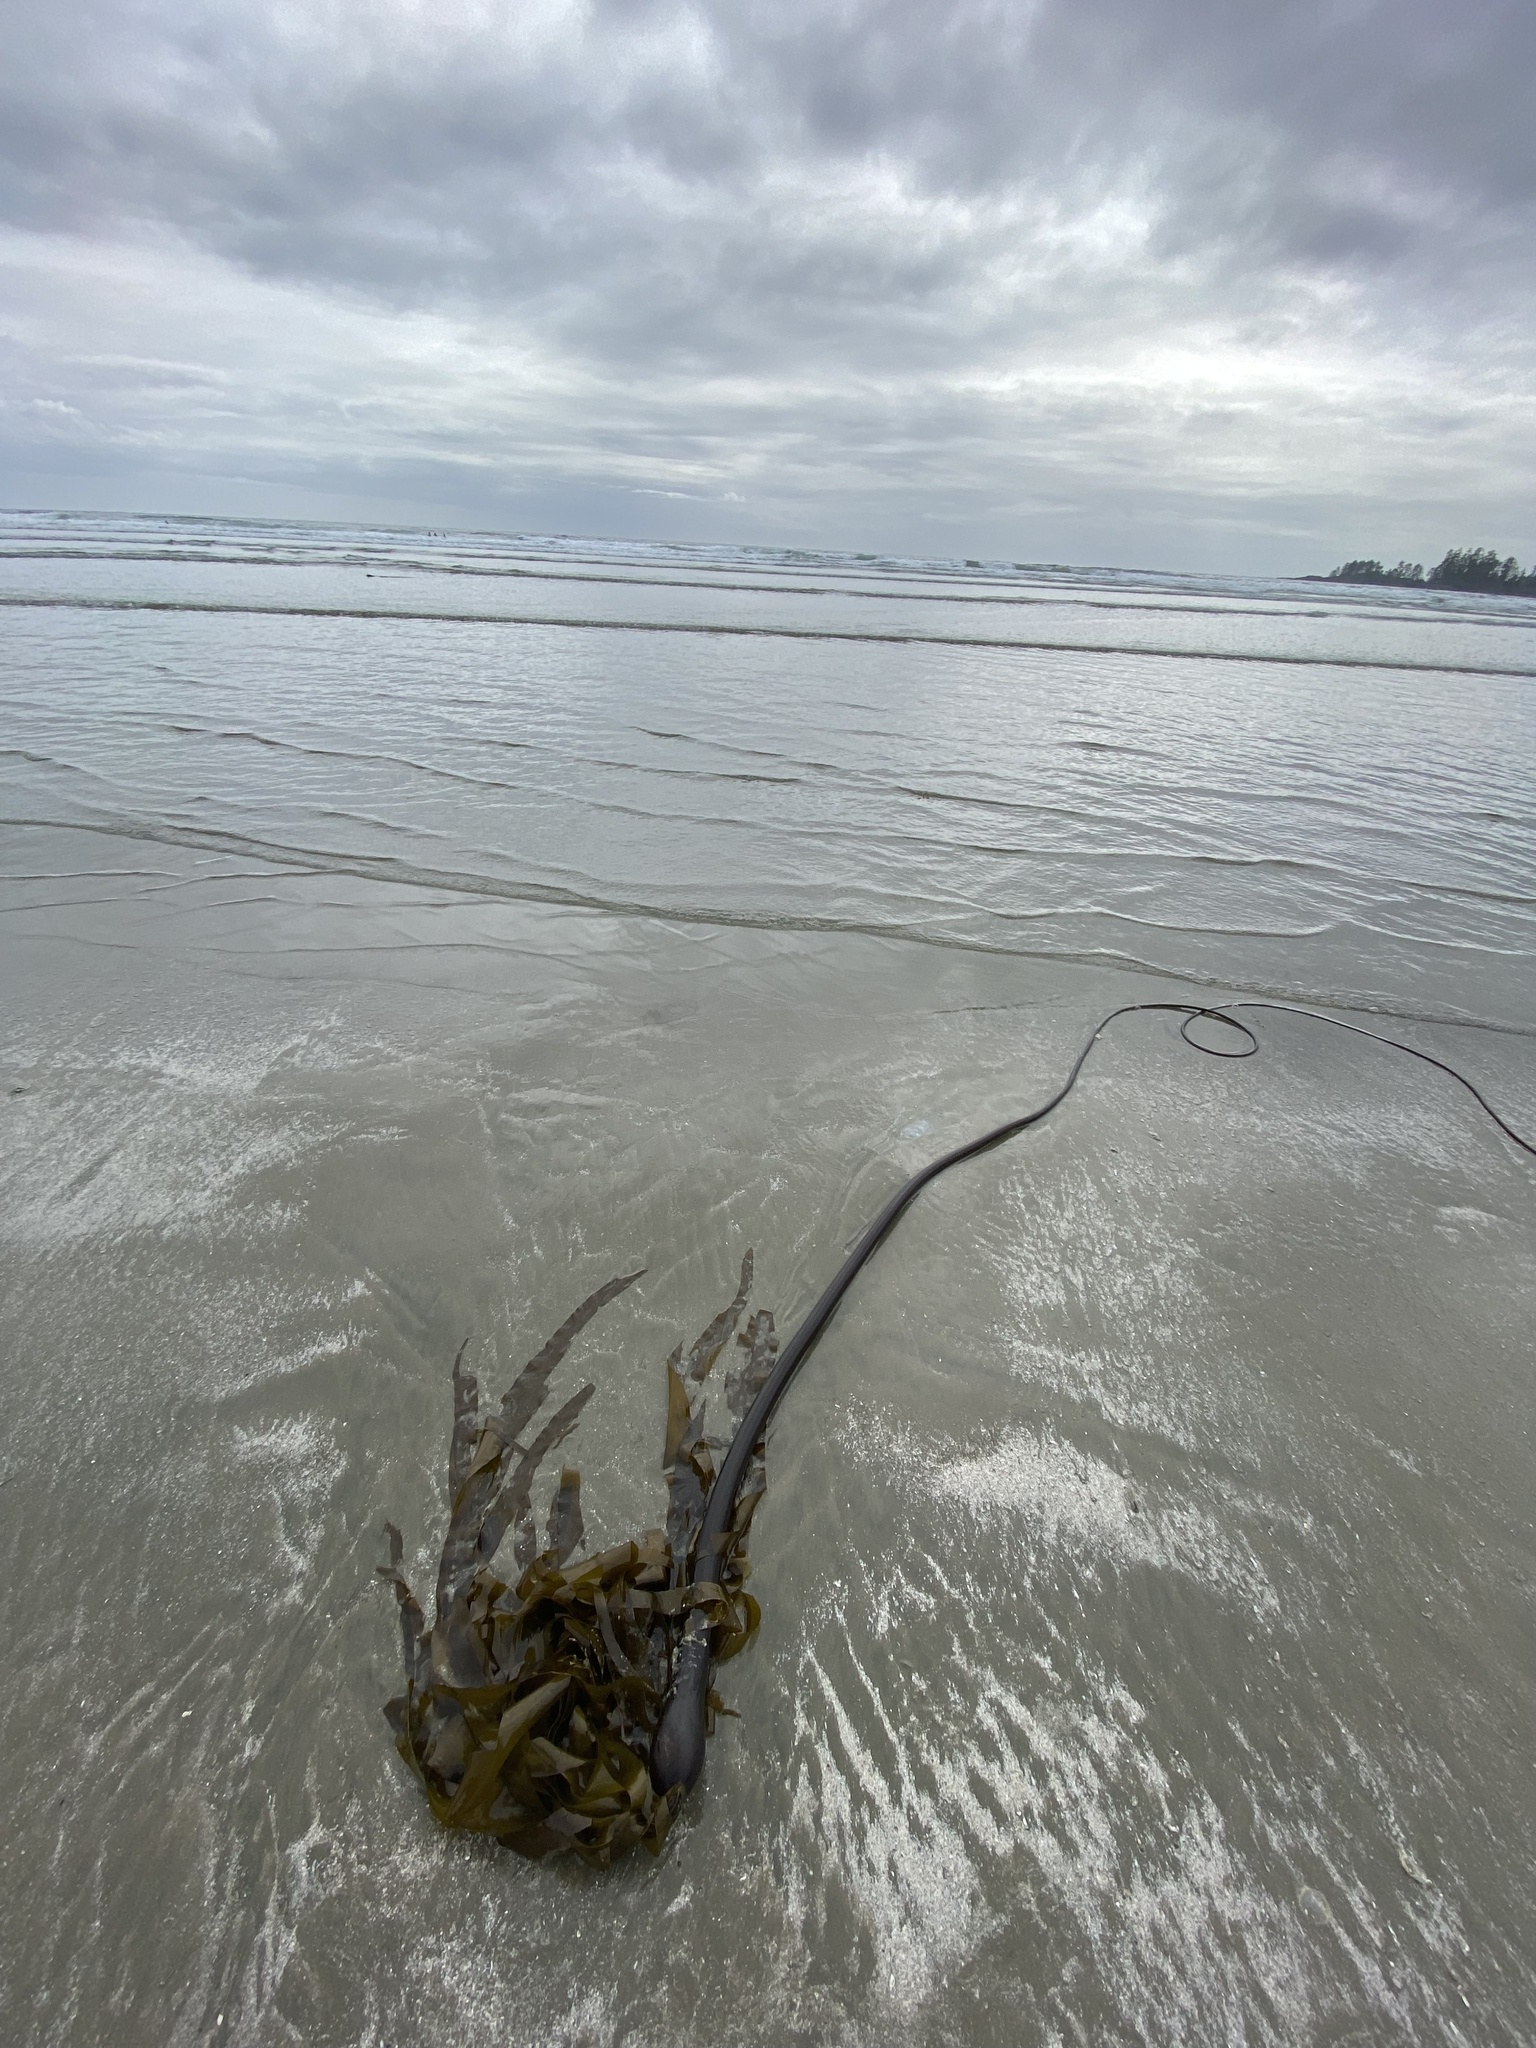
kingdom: Chromista
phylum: Ochrophyta
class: Phaeophyceae
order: Laminariales
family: Laminariaceae
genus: Nereocystis
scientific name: Nereocystis luetkeana
